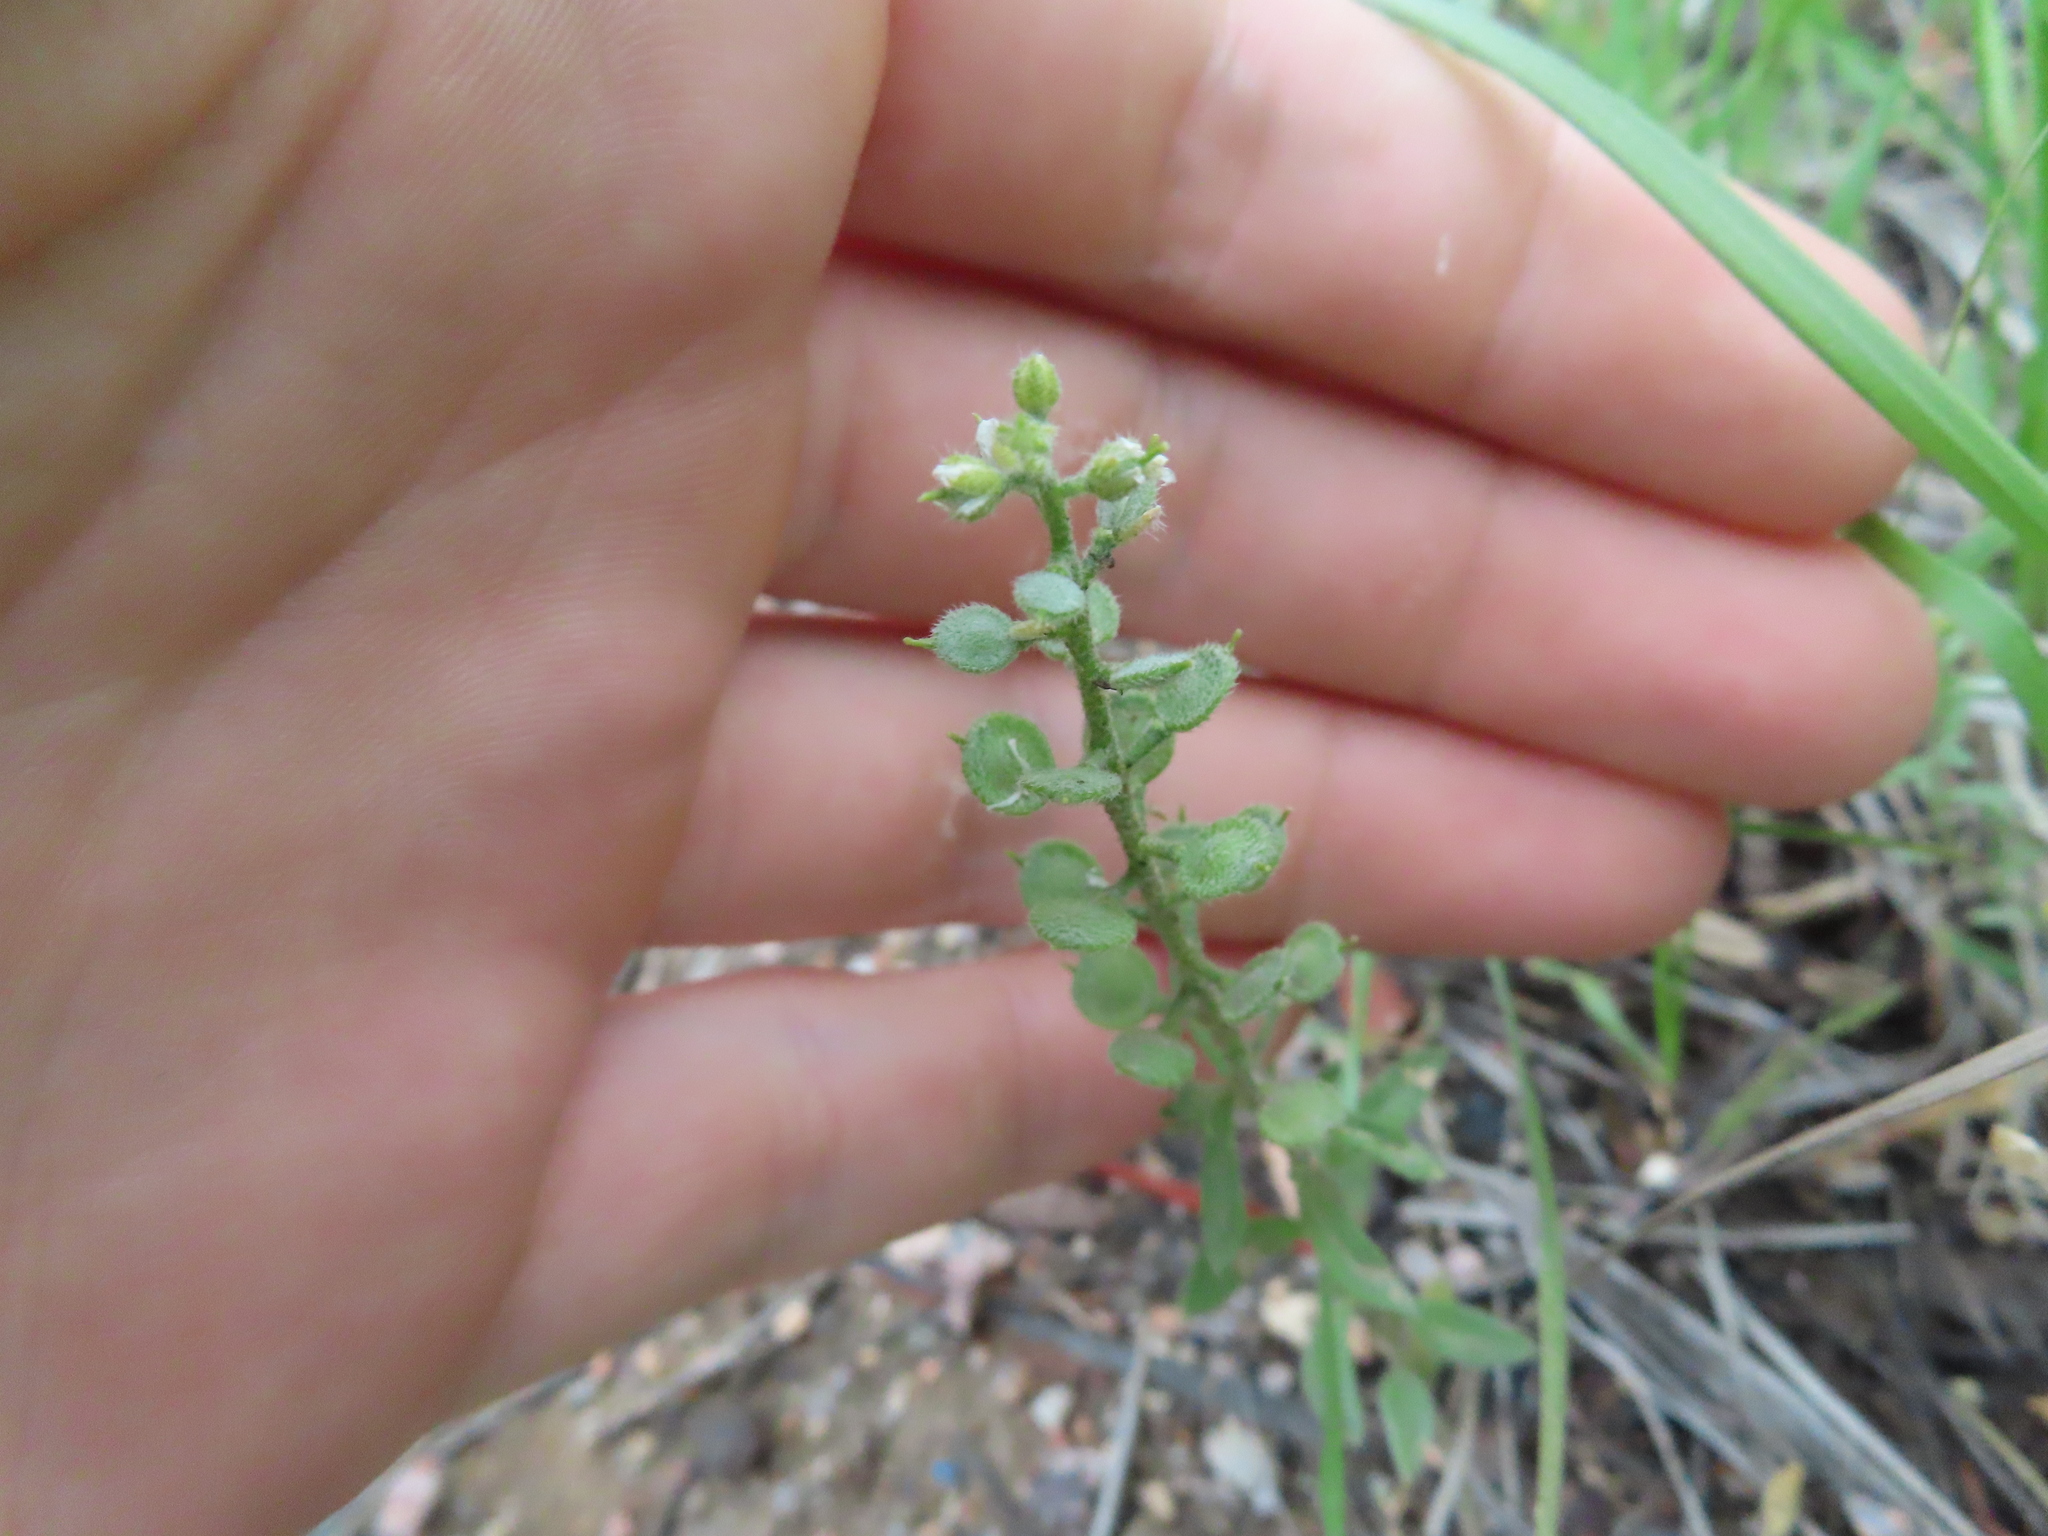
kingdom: Plantae
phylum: Tracheophyta
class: Magnoliopsida
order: Brassicales
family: Brassicaceae
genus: Alyssum
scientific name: Alyssum simplex
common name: Alyssum
